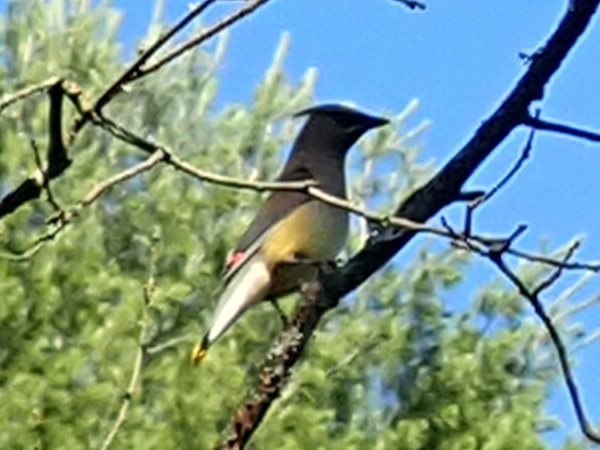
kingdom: Animalia
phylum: Chordata
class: Aves
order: Passeriformes
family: Bombycillidae
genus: Bombycilla
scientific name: Bombycilla cedrorum
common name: Cedar waxwing
